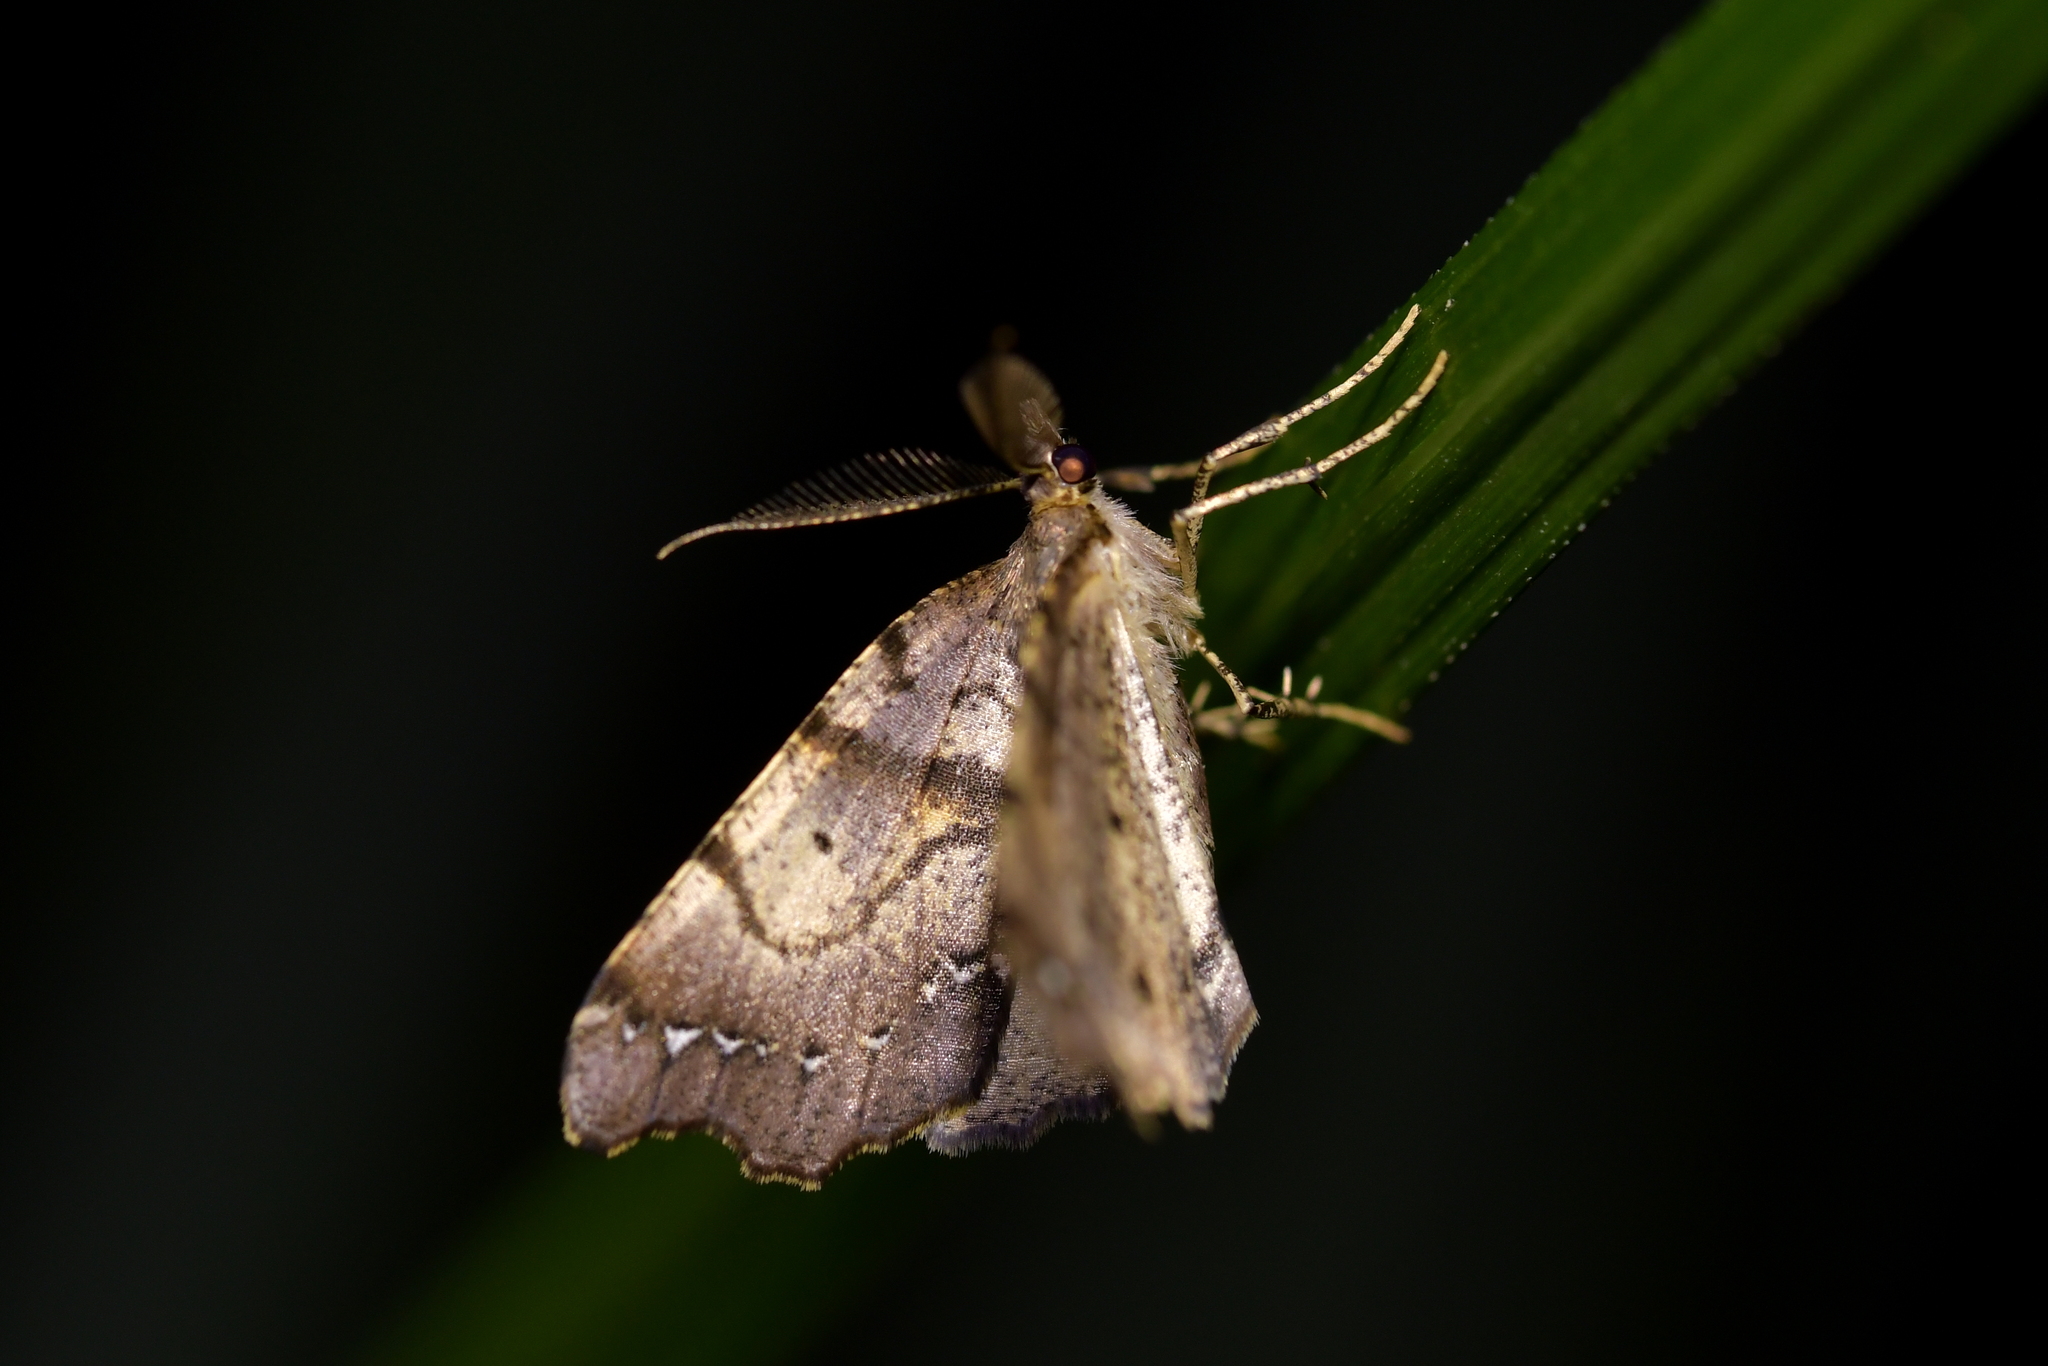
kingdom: Animalia
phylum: Arthropoda
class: Insecta
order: Lepidoptera
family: Geometridae
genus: Chalastra
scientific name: Chalastra pellurgata
